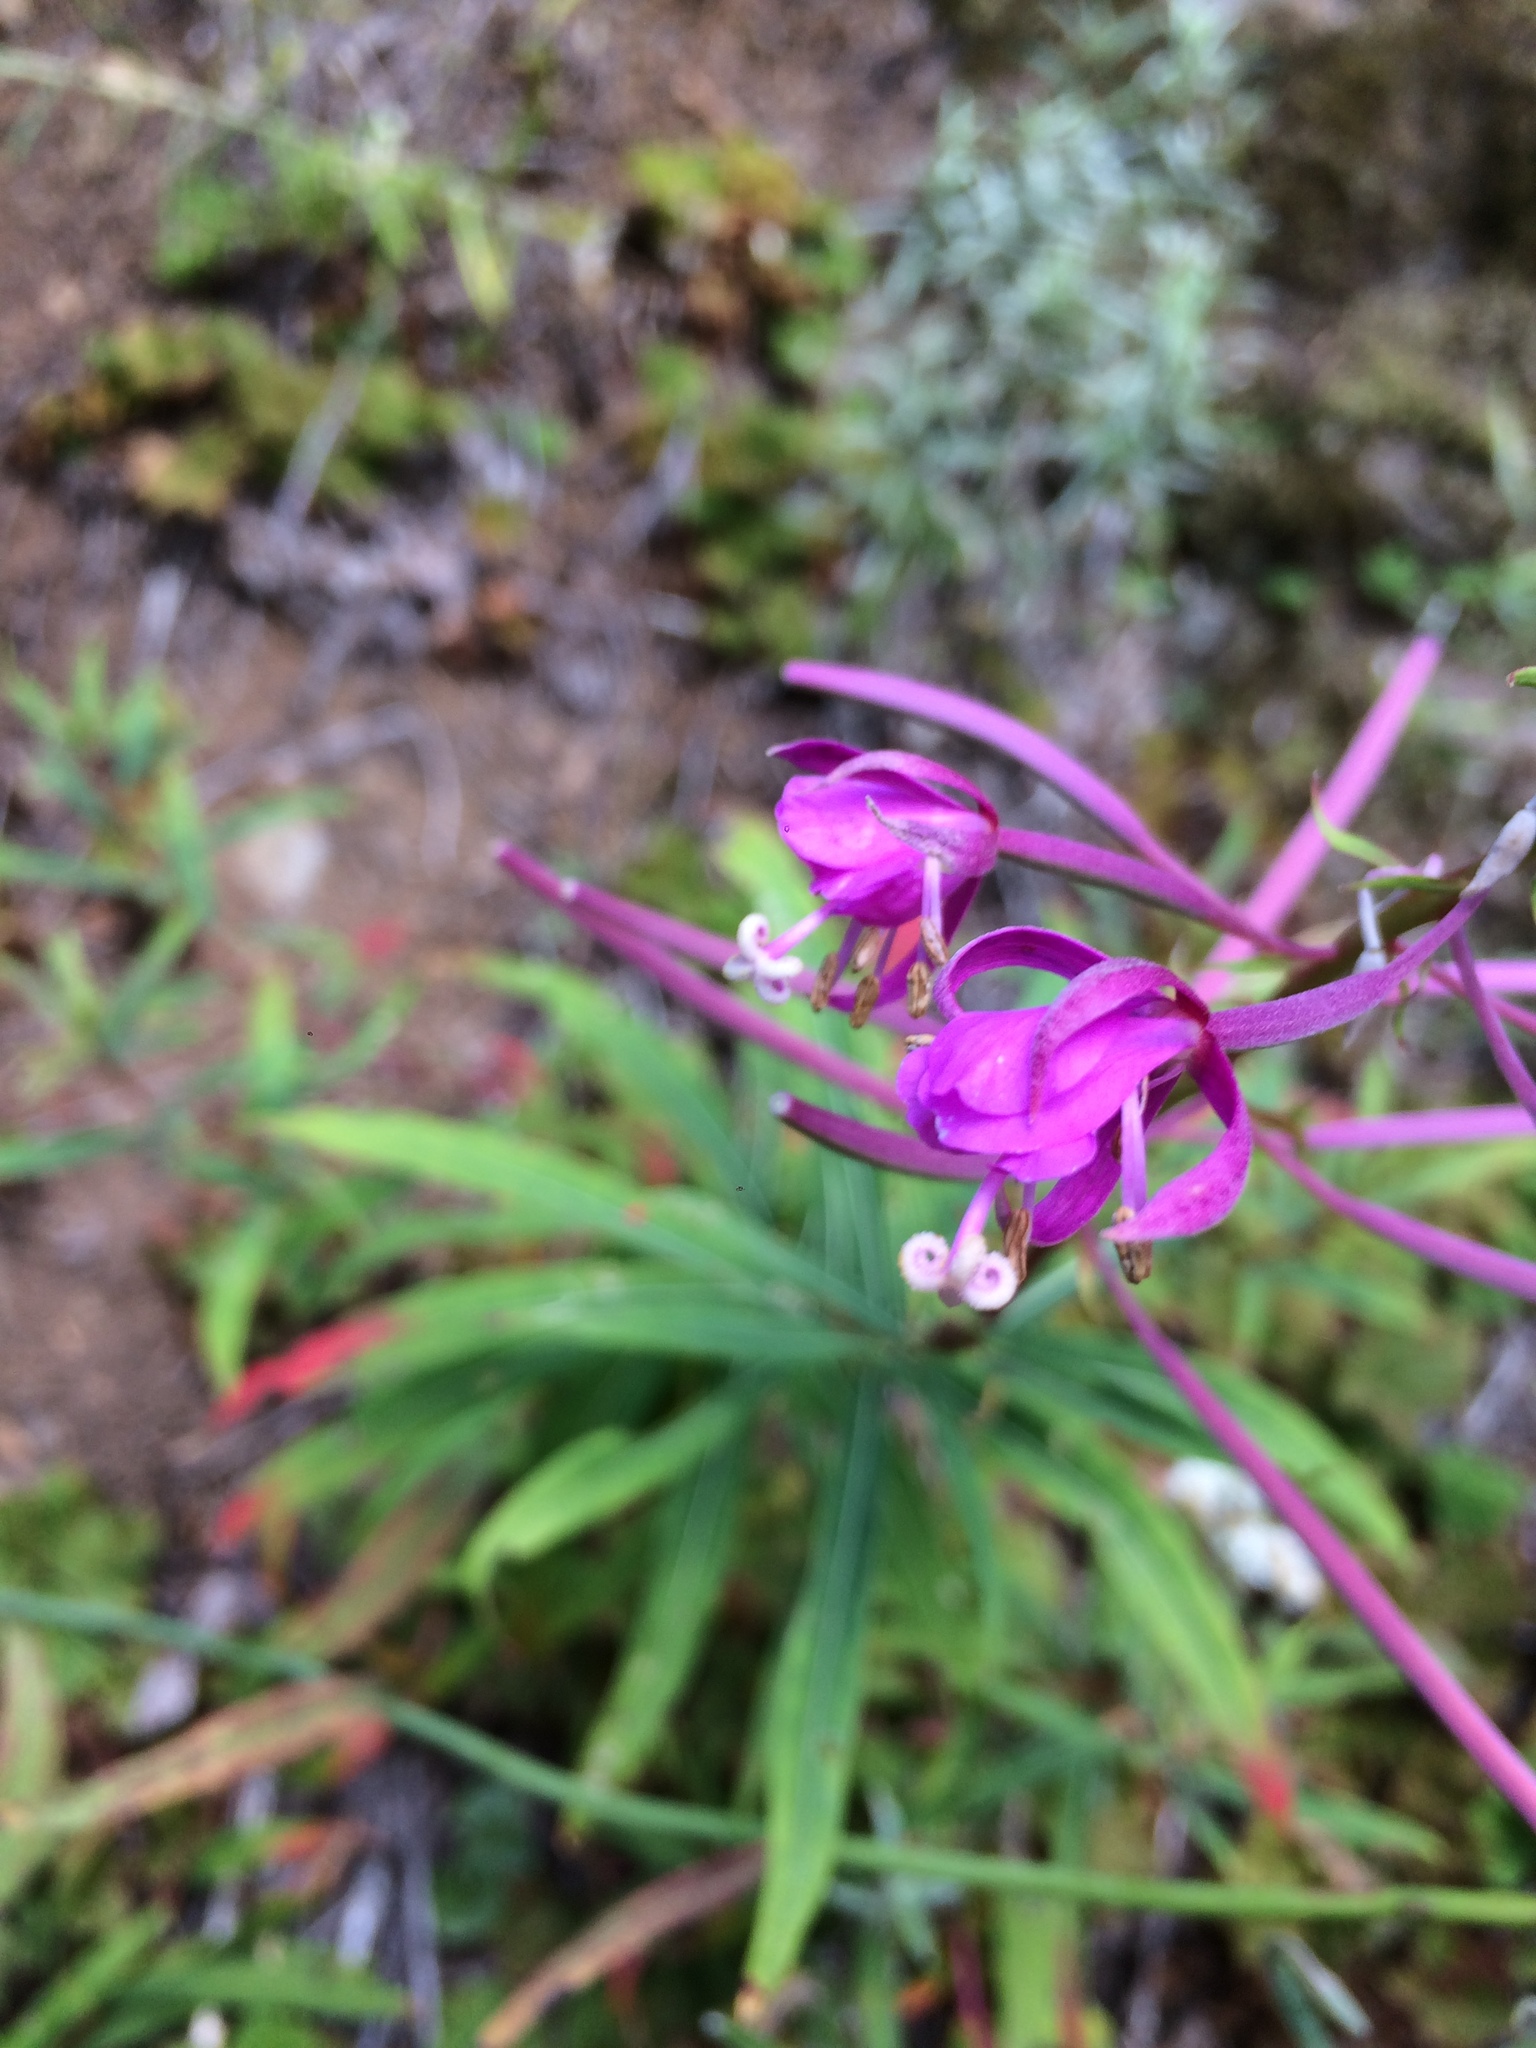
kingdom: Plantae
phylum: Tracheophyta
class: Magnoliopsida
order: Myrtales
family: Onagraceae
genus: Chamaenerion
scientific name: Chamaenerion angustifolium
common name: Fireweed
